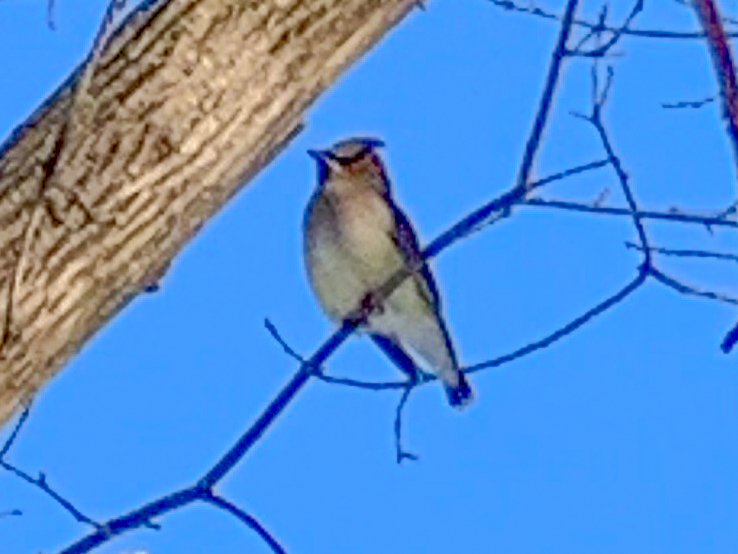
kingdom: Animalia
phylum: Chordata
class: Aves
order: Passeriformes
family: Bombycillidae
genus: Bombycilla
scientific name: Bombycilla cedrorum
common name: Cedar waxwing
